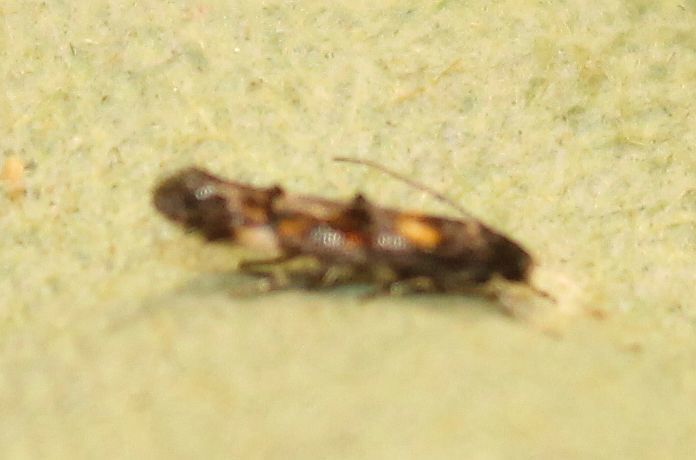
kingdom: Animalia
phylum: Arthropoda
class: Insecta
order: Lepidoptera
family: Momphidae
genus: Mompha
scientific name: Mompha raschkiella
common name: Little cosmet
